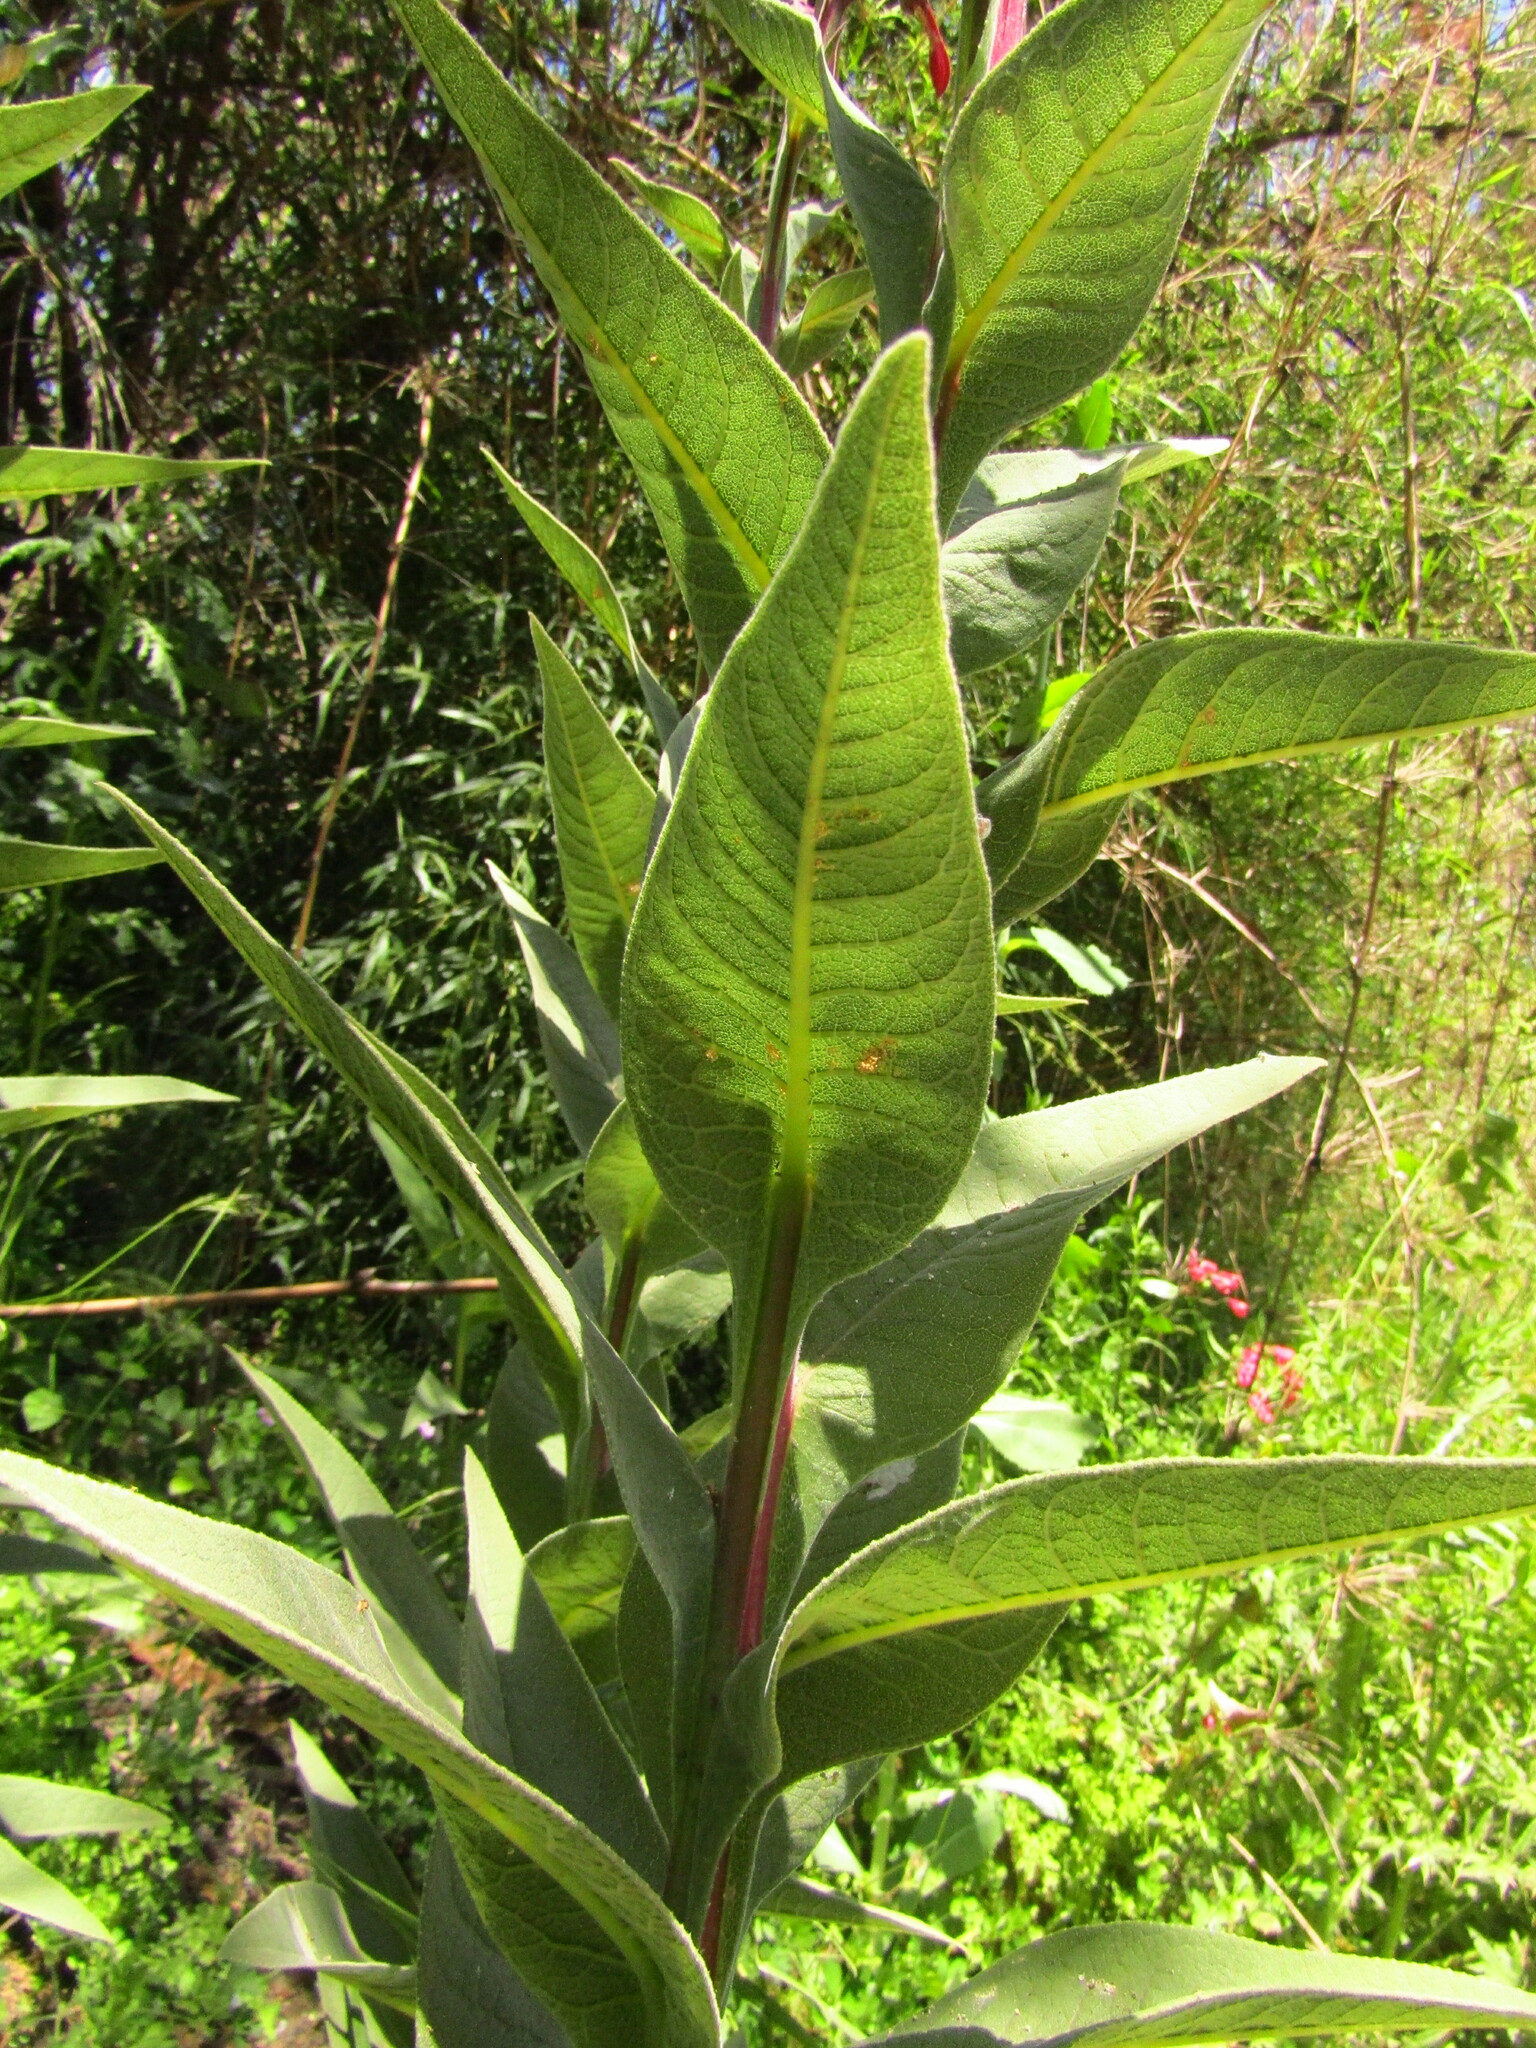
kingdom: Plantae
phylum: Tracheophyta
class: Magnoliopsida
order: Asterales
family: Campanulaceae
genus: Lobelia
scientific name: Lobelia tupa
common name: Devil's-tobacco
